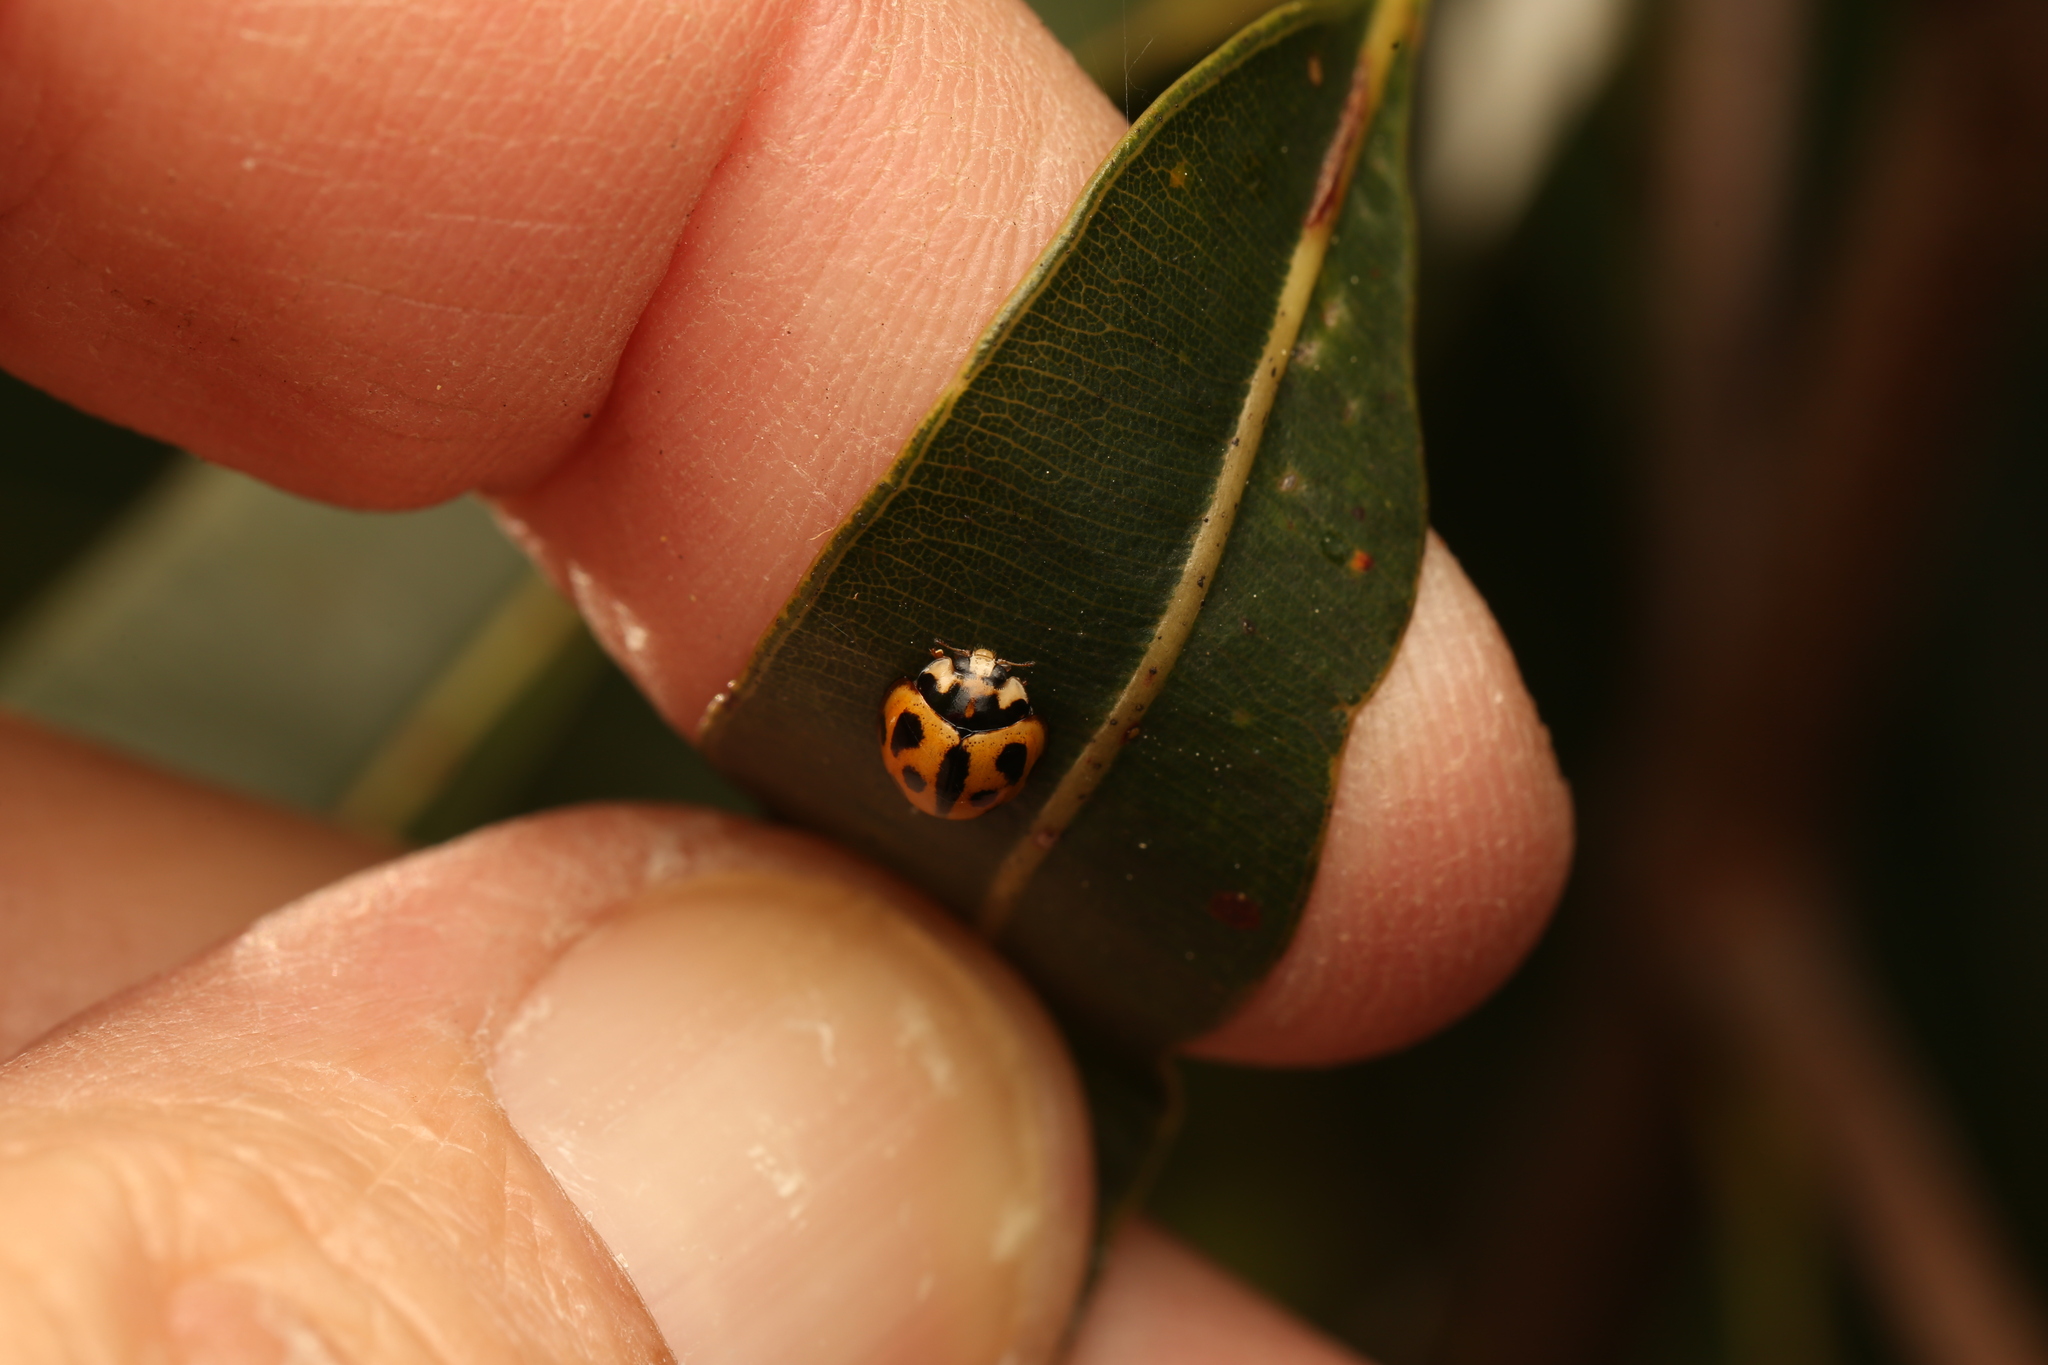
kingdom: Animalia
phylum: Arthropoda
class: Insecta
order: Coleoptera
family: Coccinellidae
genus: Coelophora
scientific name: Coelophora inaequalis
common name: Common australian lady beetle
